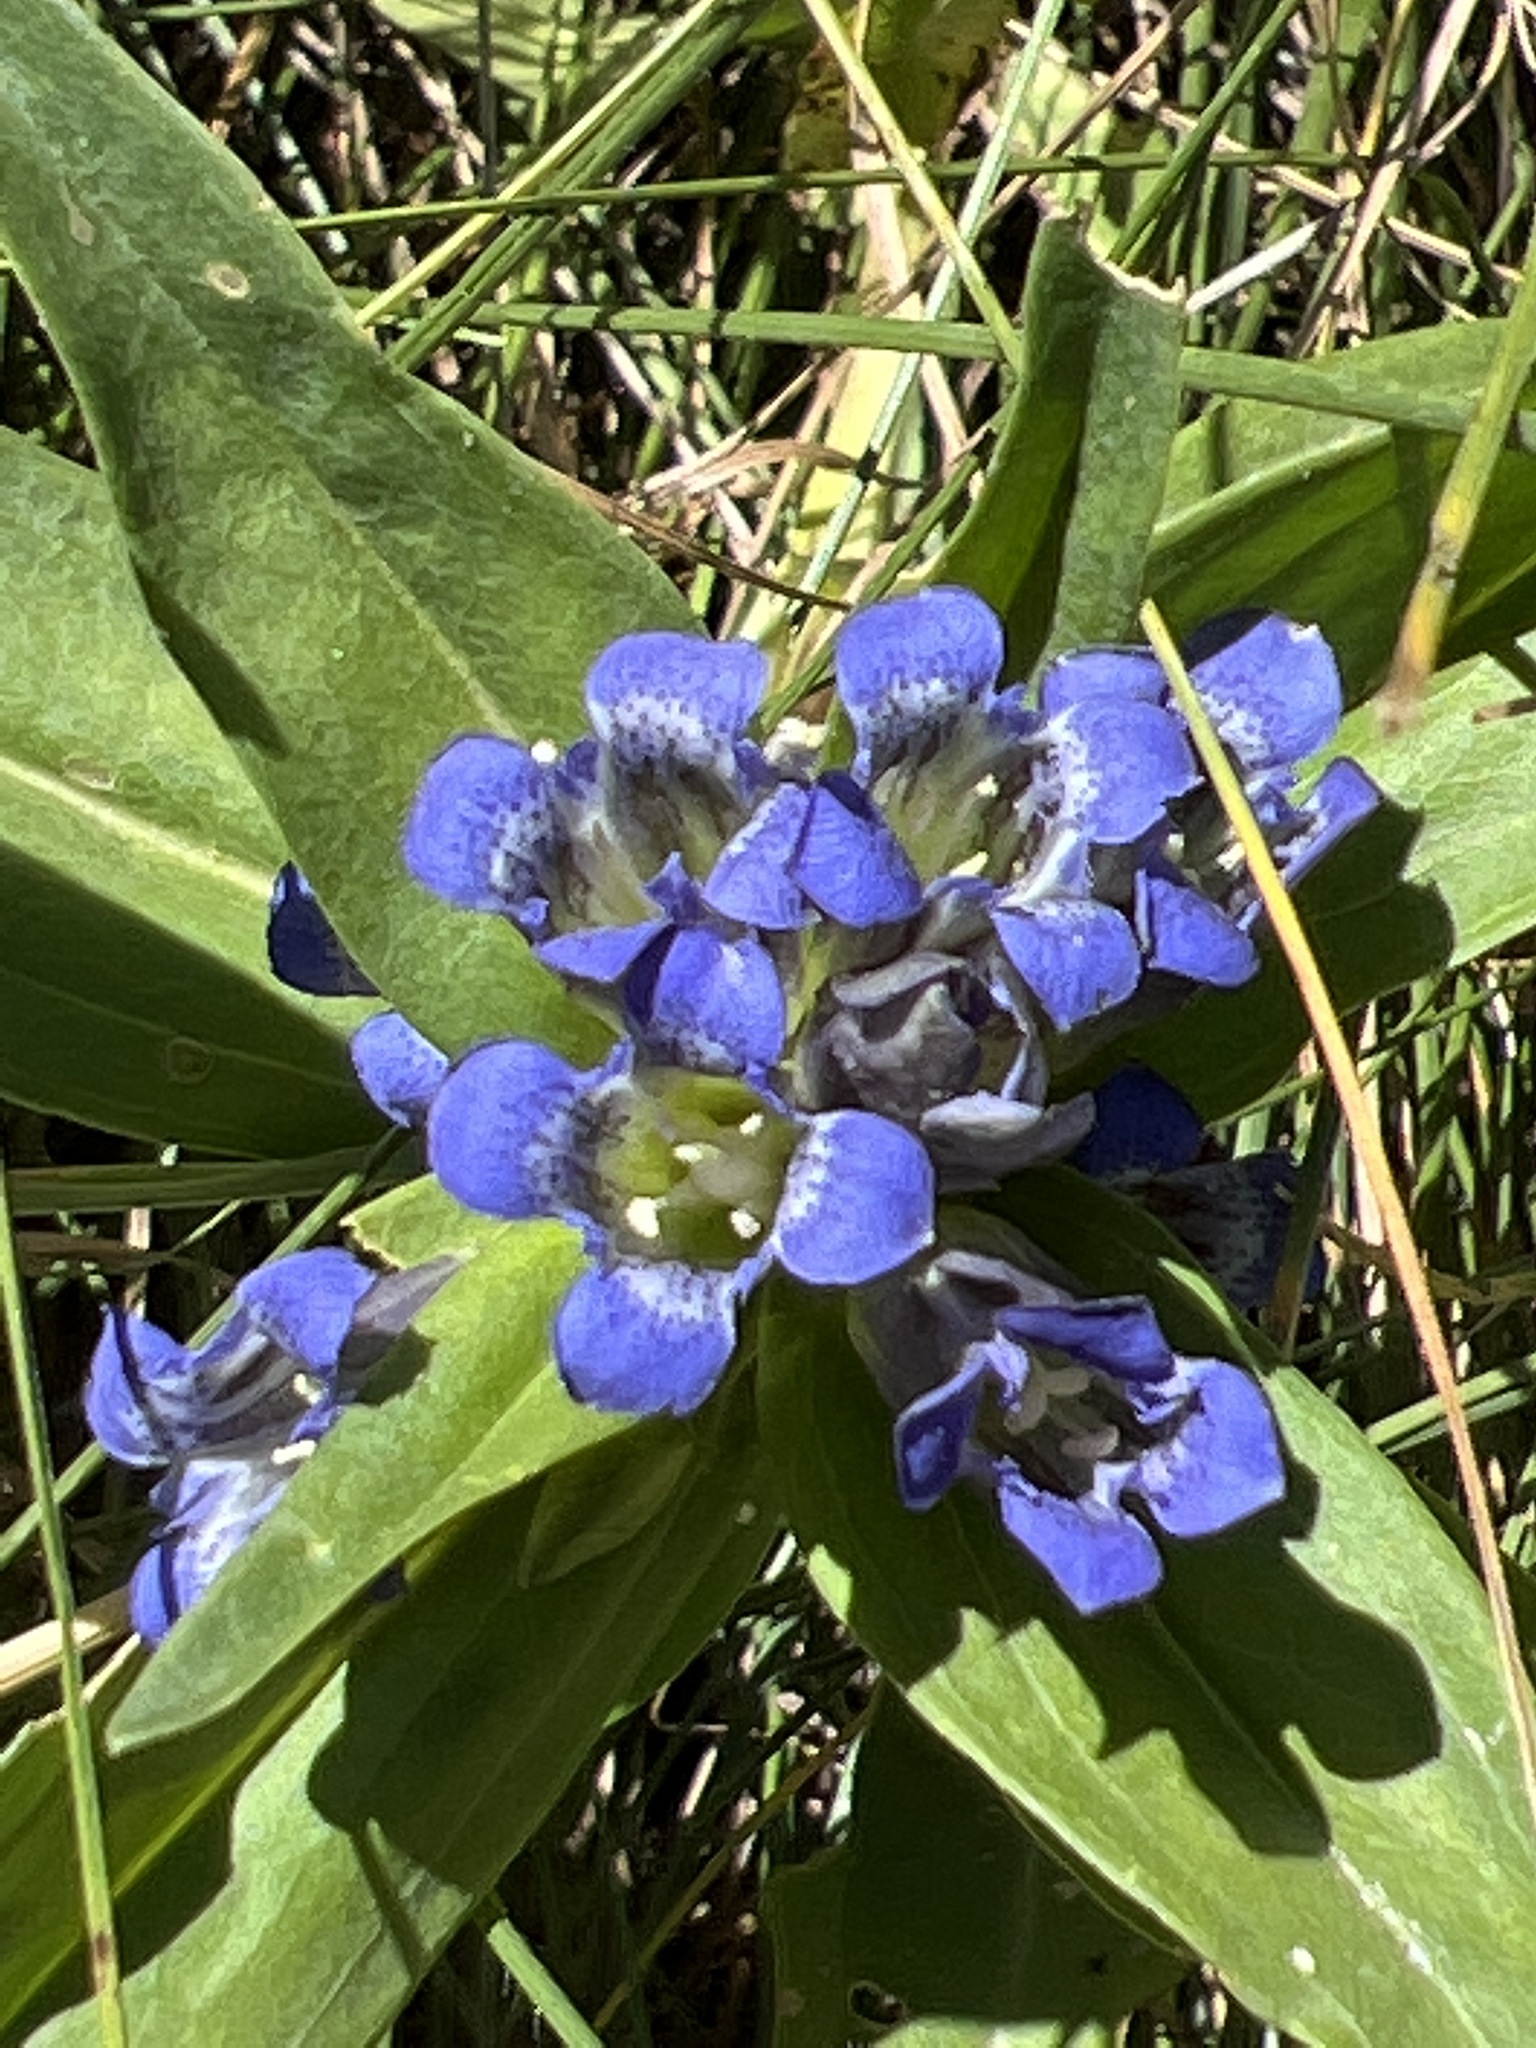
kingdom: Plantae
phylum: Tracheophyta
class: Magnoliopsida
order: Gentianales
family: Gentianaceae
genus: Gentiana
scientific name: Gentiana cruciata
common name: Cross gentian
